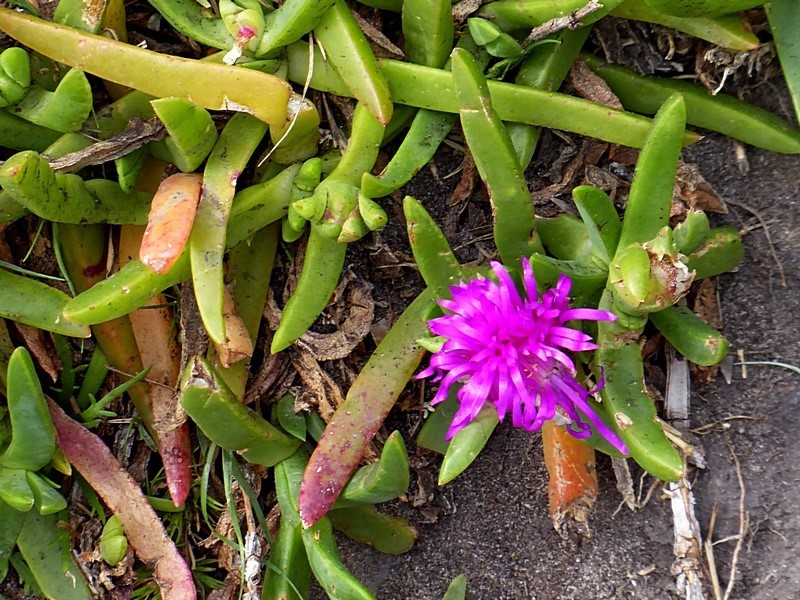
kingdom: Plantae
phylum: Tracheophyta
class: Magnoliopsida
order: Caryophyllales
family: Aizoaceae
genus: Carpobrotus
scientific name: Carpobrotus glaucescens
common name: Angular sea-fig
